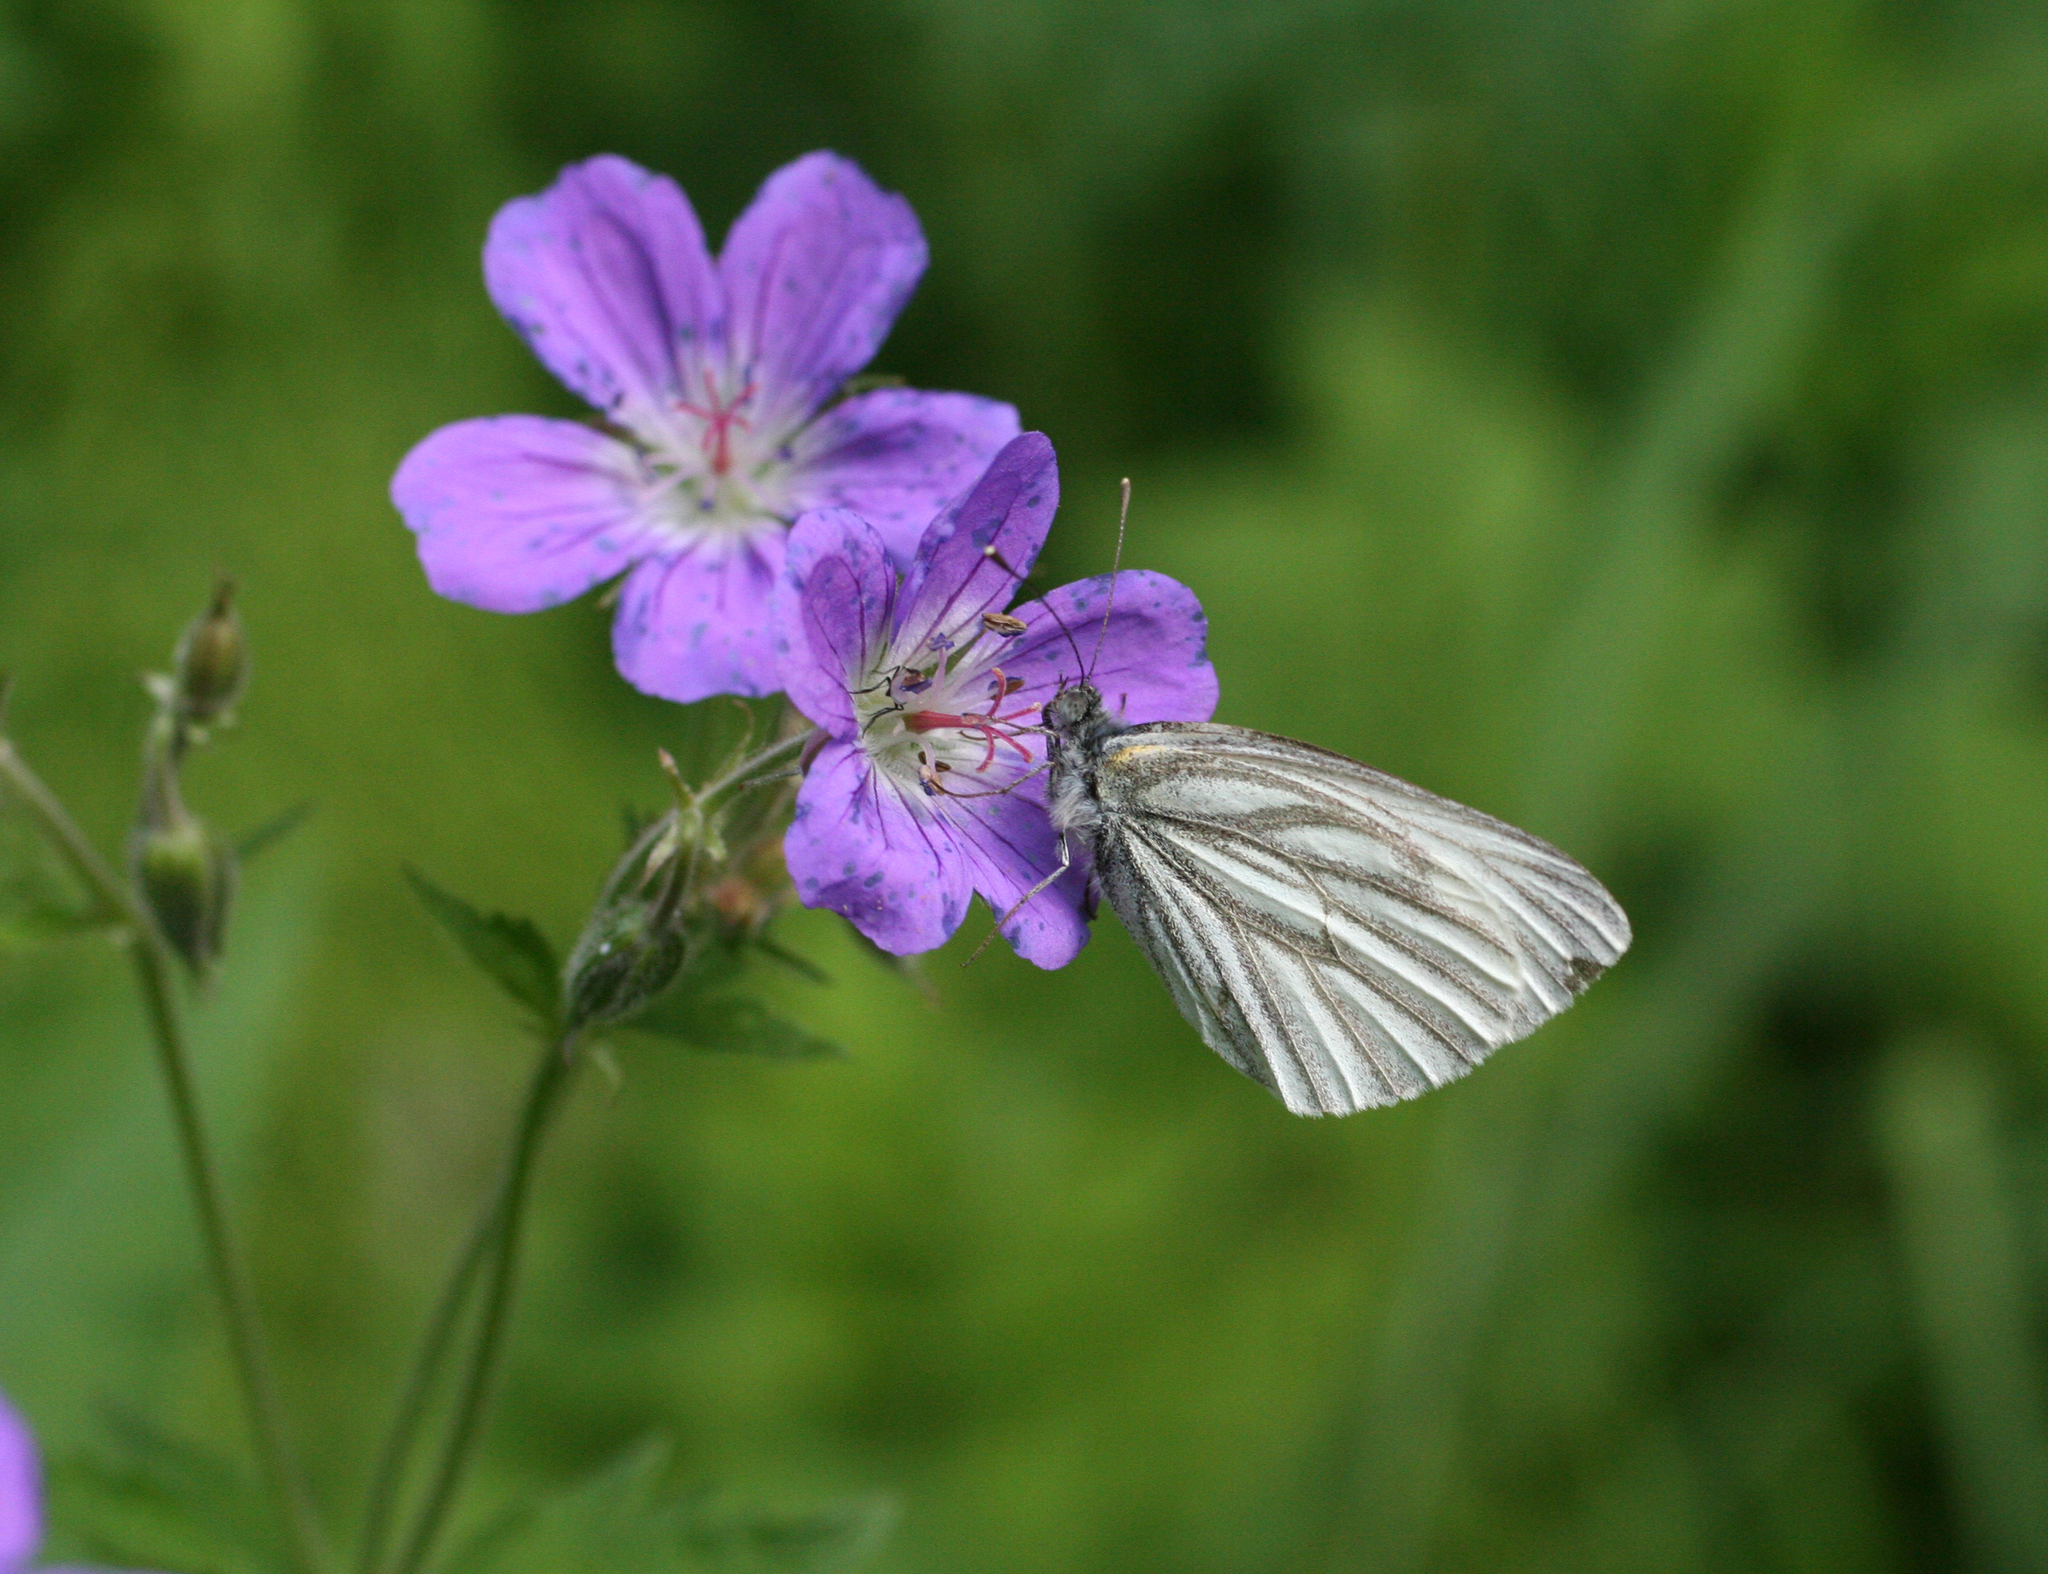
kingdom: Animalia
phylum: Arthropoda
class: Insecta
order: Lepidoptera
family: Pieridae
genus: Pieris
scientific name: Pieris napi
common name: Green-veined white
